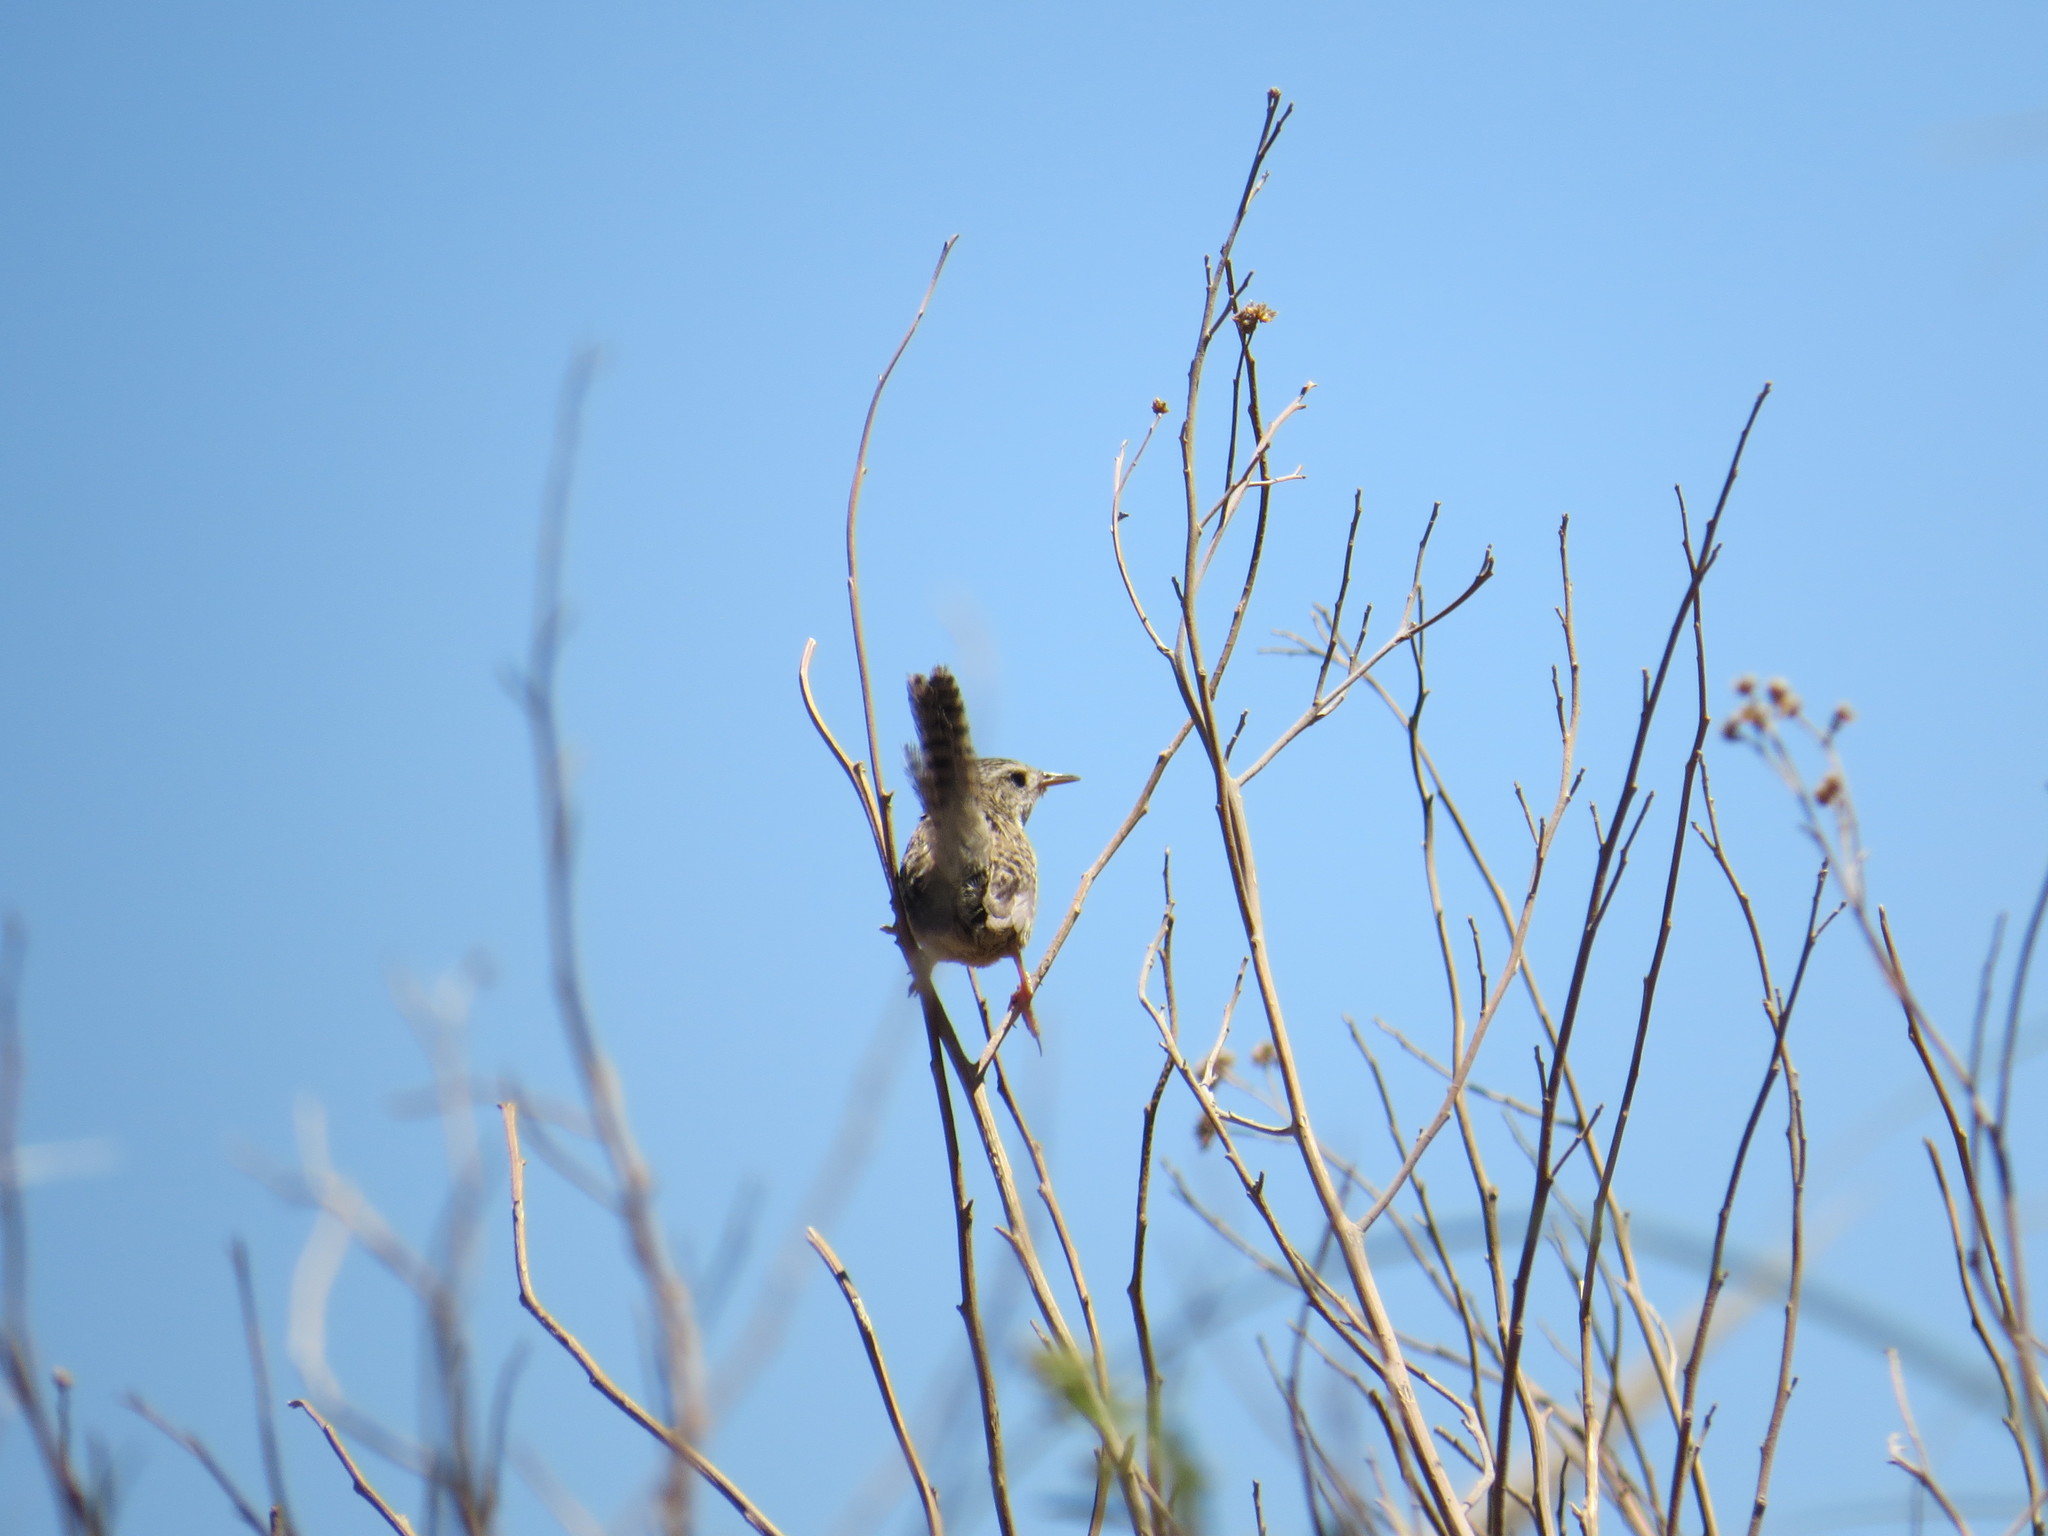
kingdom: Animalia
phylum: Chordata
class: Aves
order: Passeriformes
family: Troglodytidae
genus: Cistothorus
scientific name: Cistothorus platensis
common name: Sedge wren
